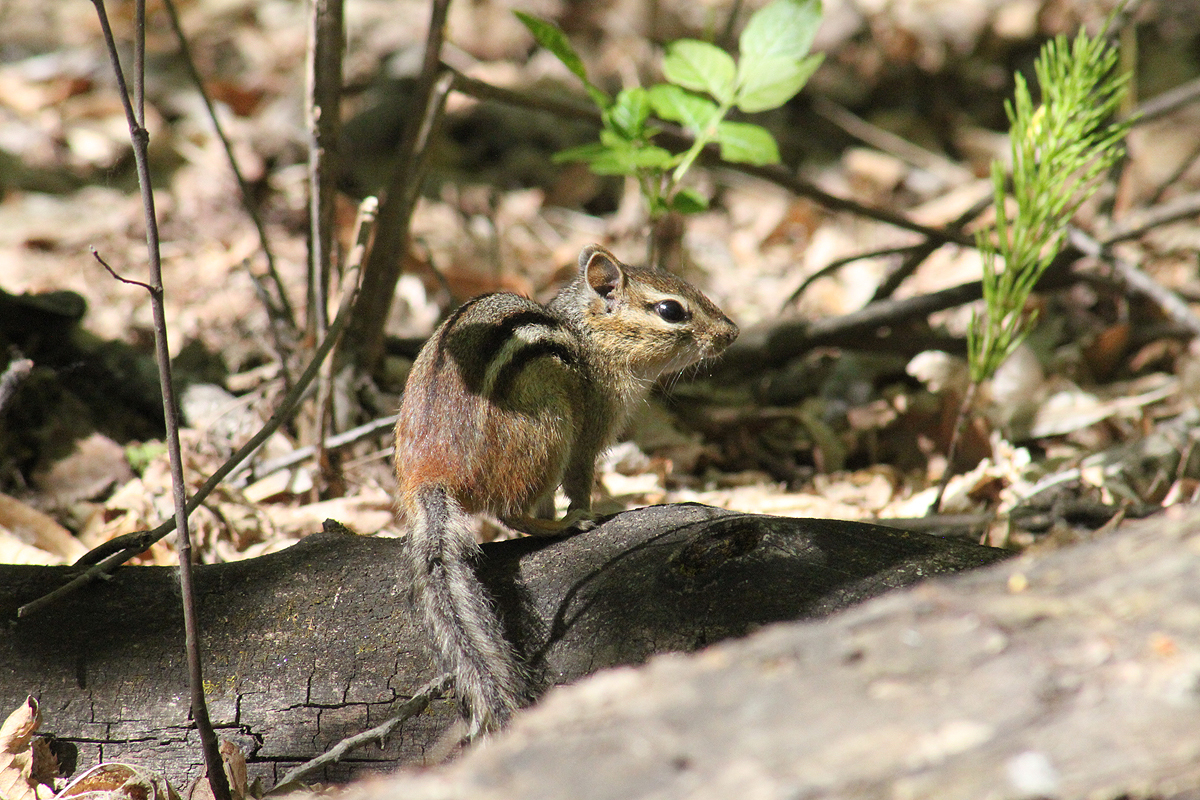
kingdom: Animalia
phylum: Chordata
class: Mammalia
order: Rodentia
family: Sciuridae
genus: Tamias
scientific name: Tamias striatus
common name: Eastern chipmunk
